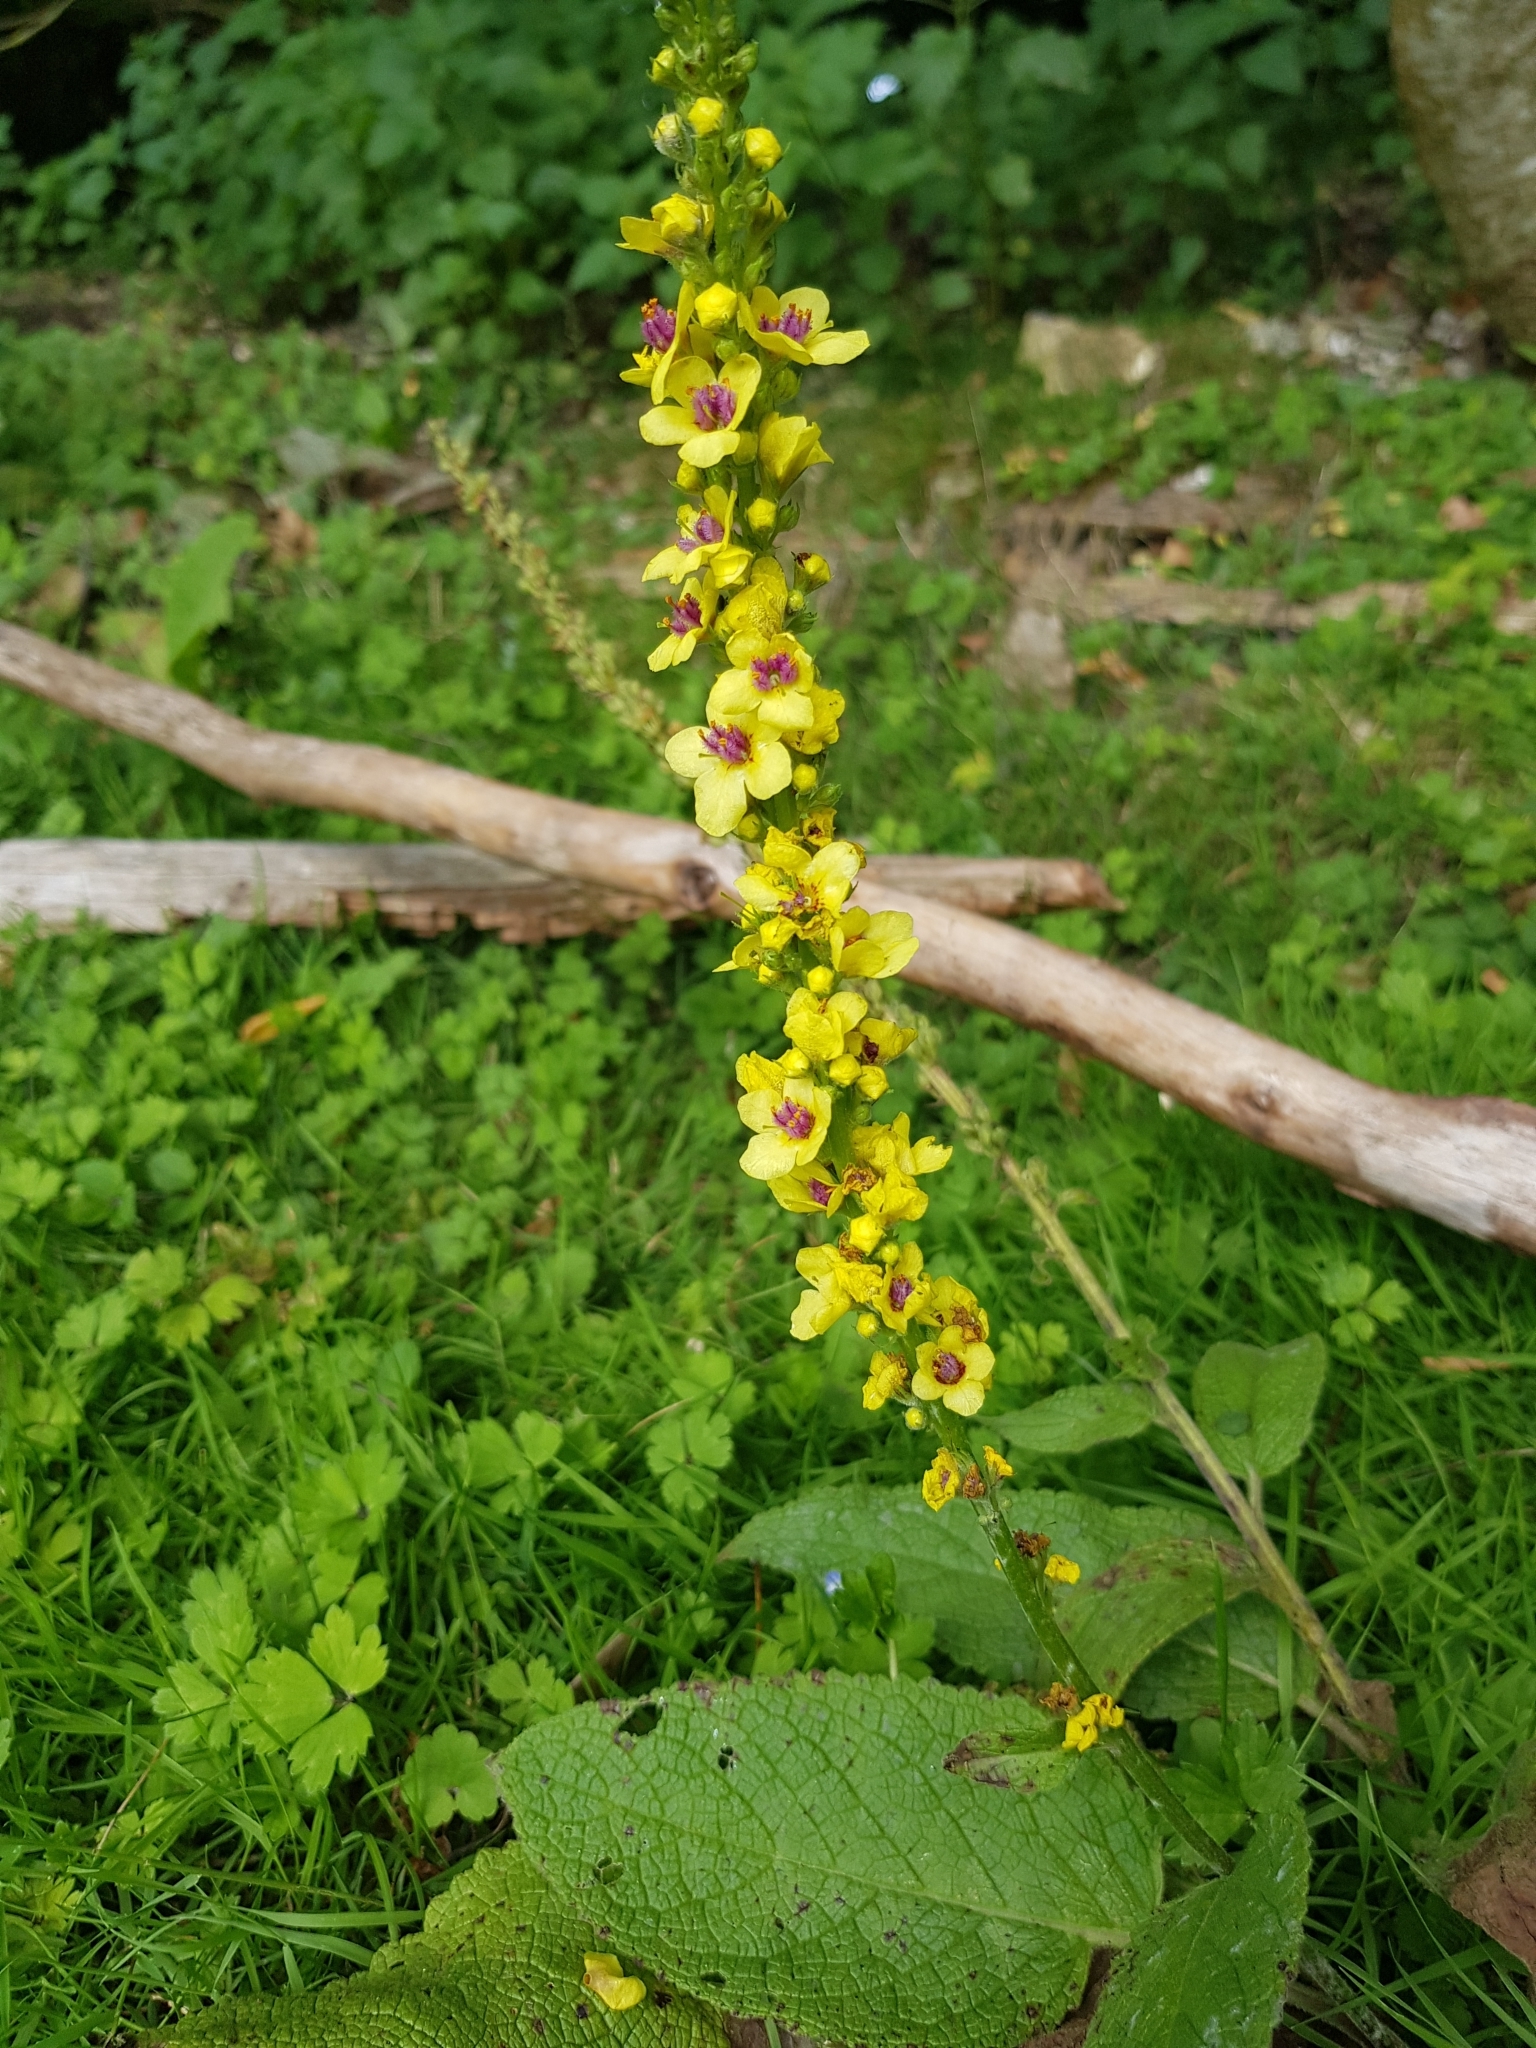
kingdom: Plantae
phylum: Tracheophyta
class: Magnoliopsida
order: Lamiales
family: Scrophulariaceae
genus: Verbascum
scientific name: Verbascum nigrum
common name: Dark mullein
